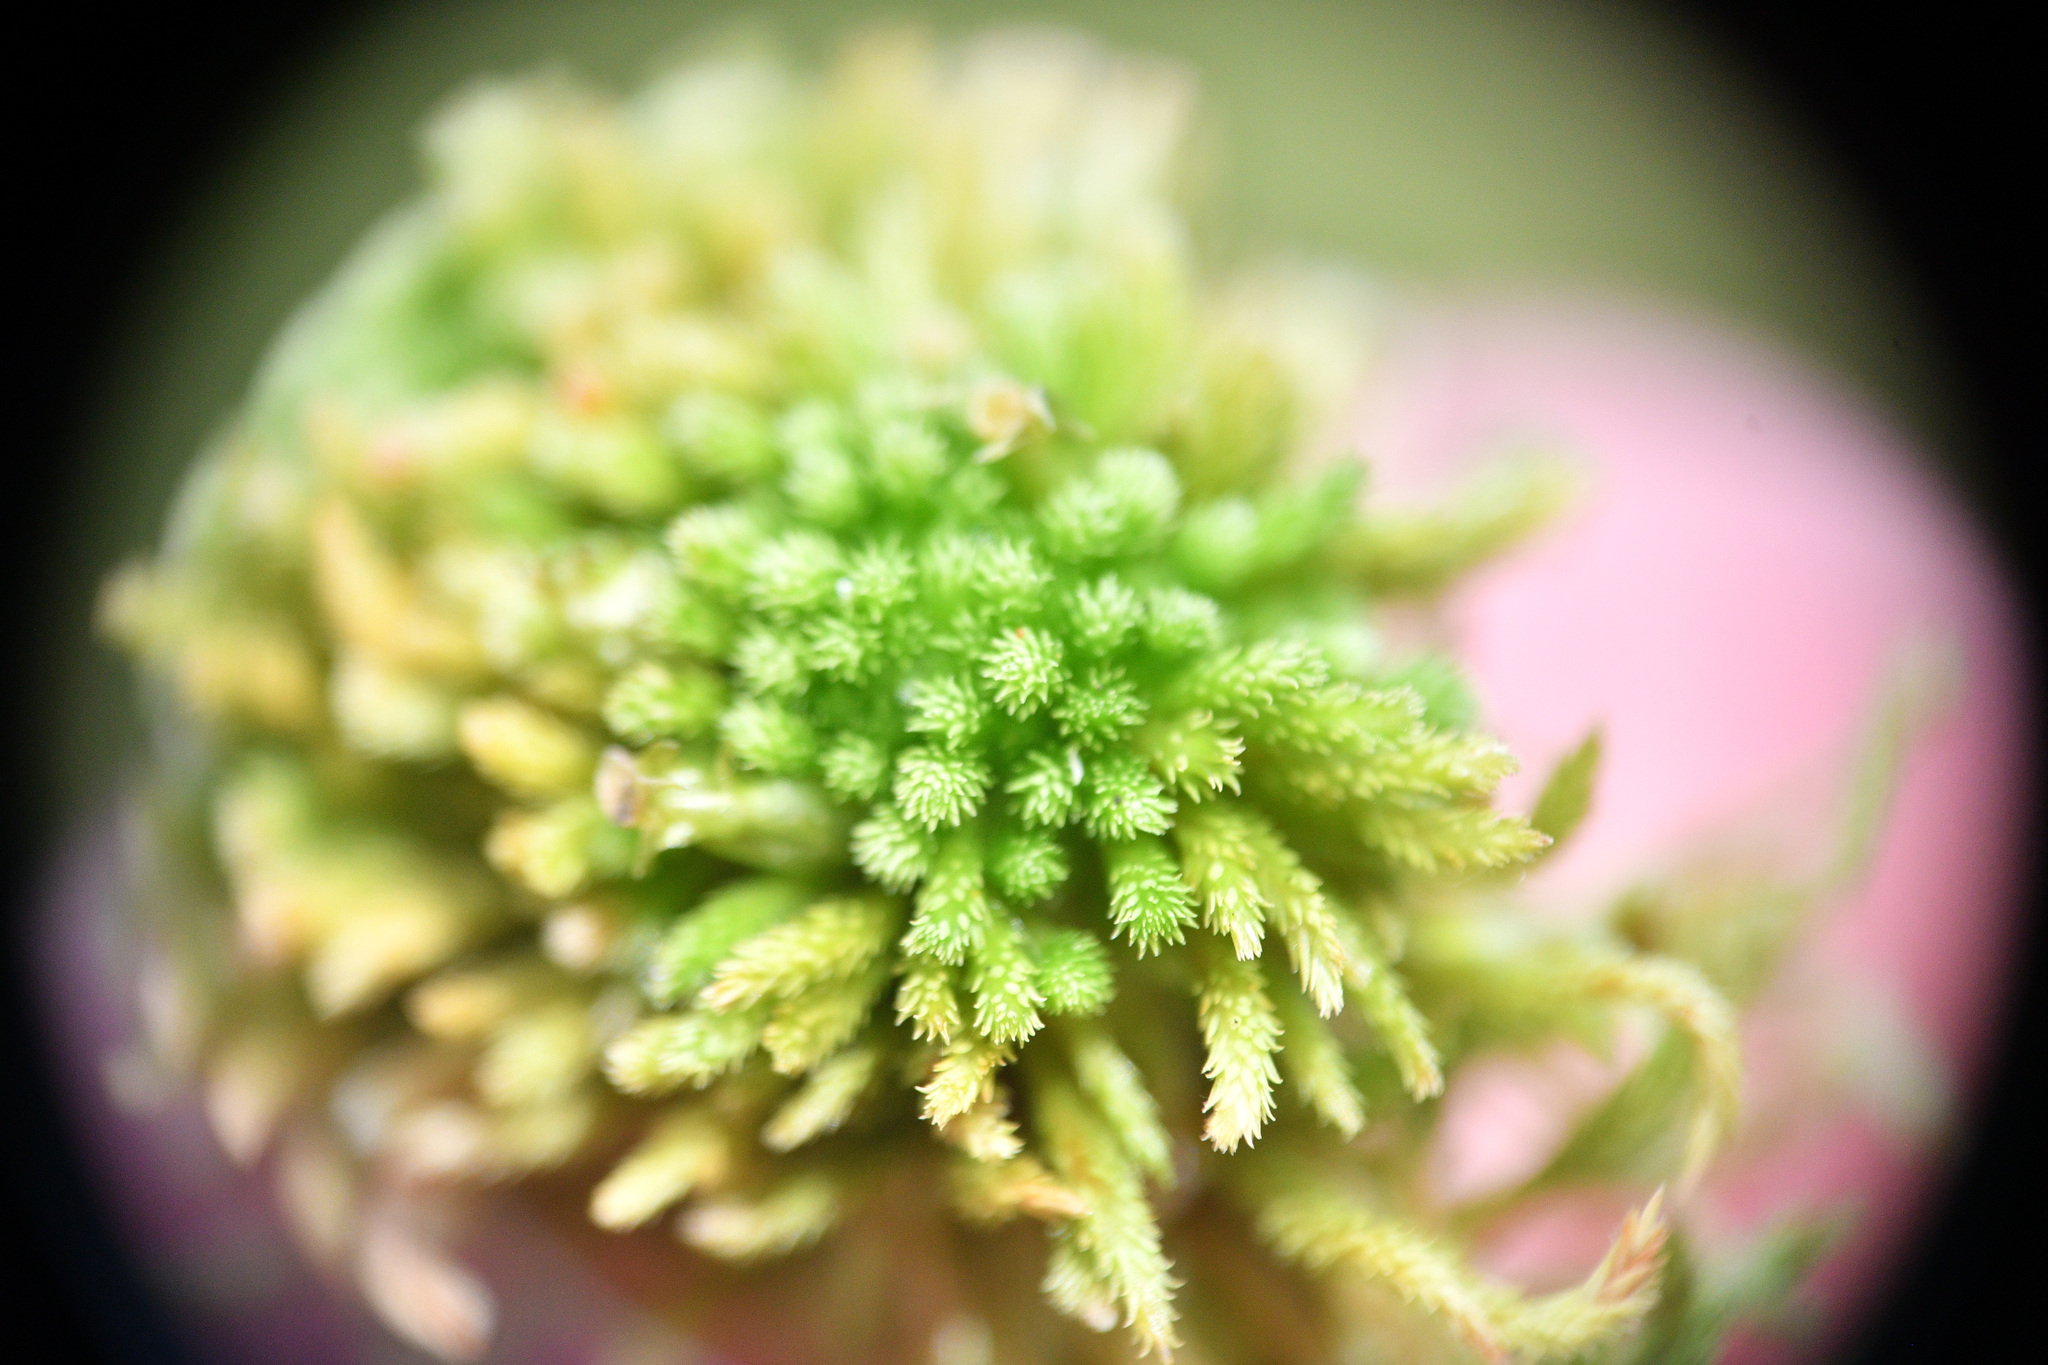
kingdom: Plantae
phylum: Bryophyta
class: Sphagnopsida
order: Sphagnales
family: Sphagnaceae
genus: Sphagnum
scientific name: Sphagnum wulfianum
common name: Wulf's peat moss
